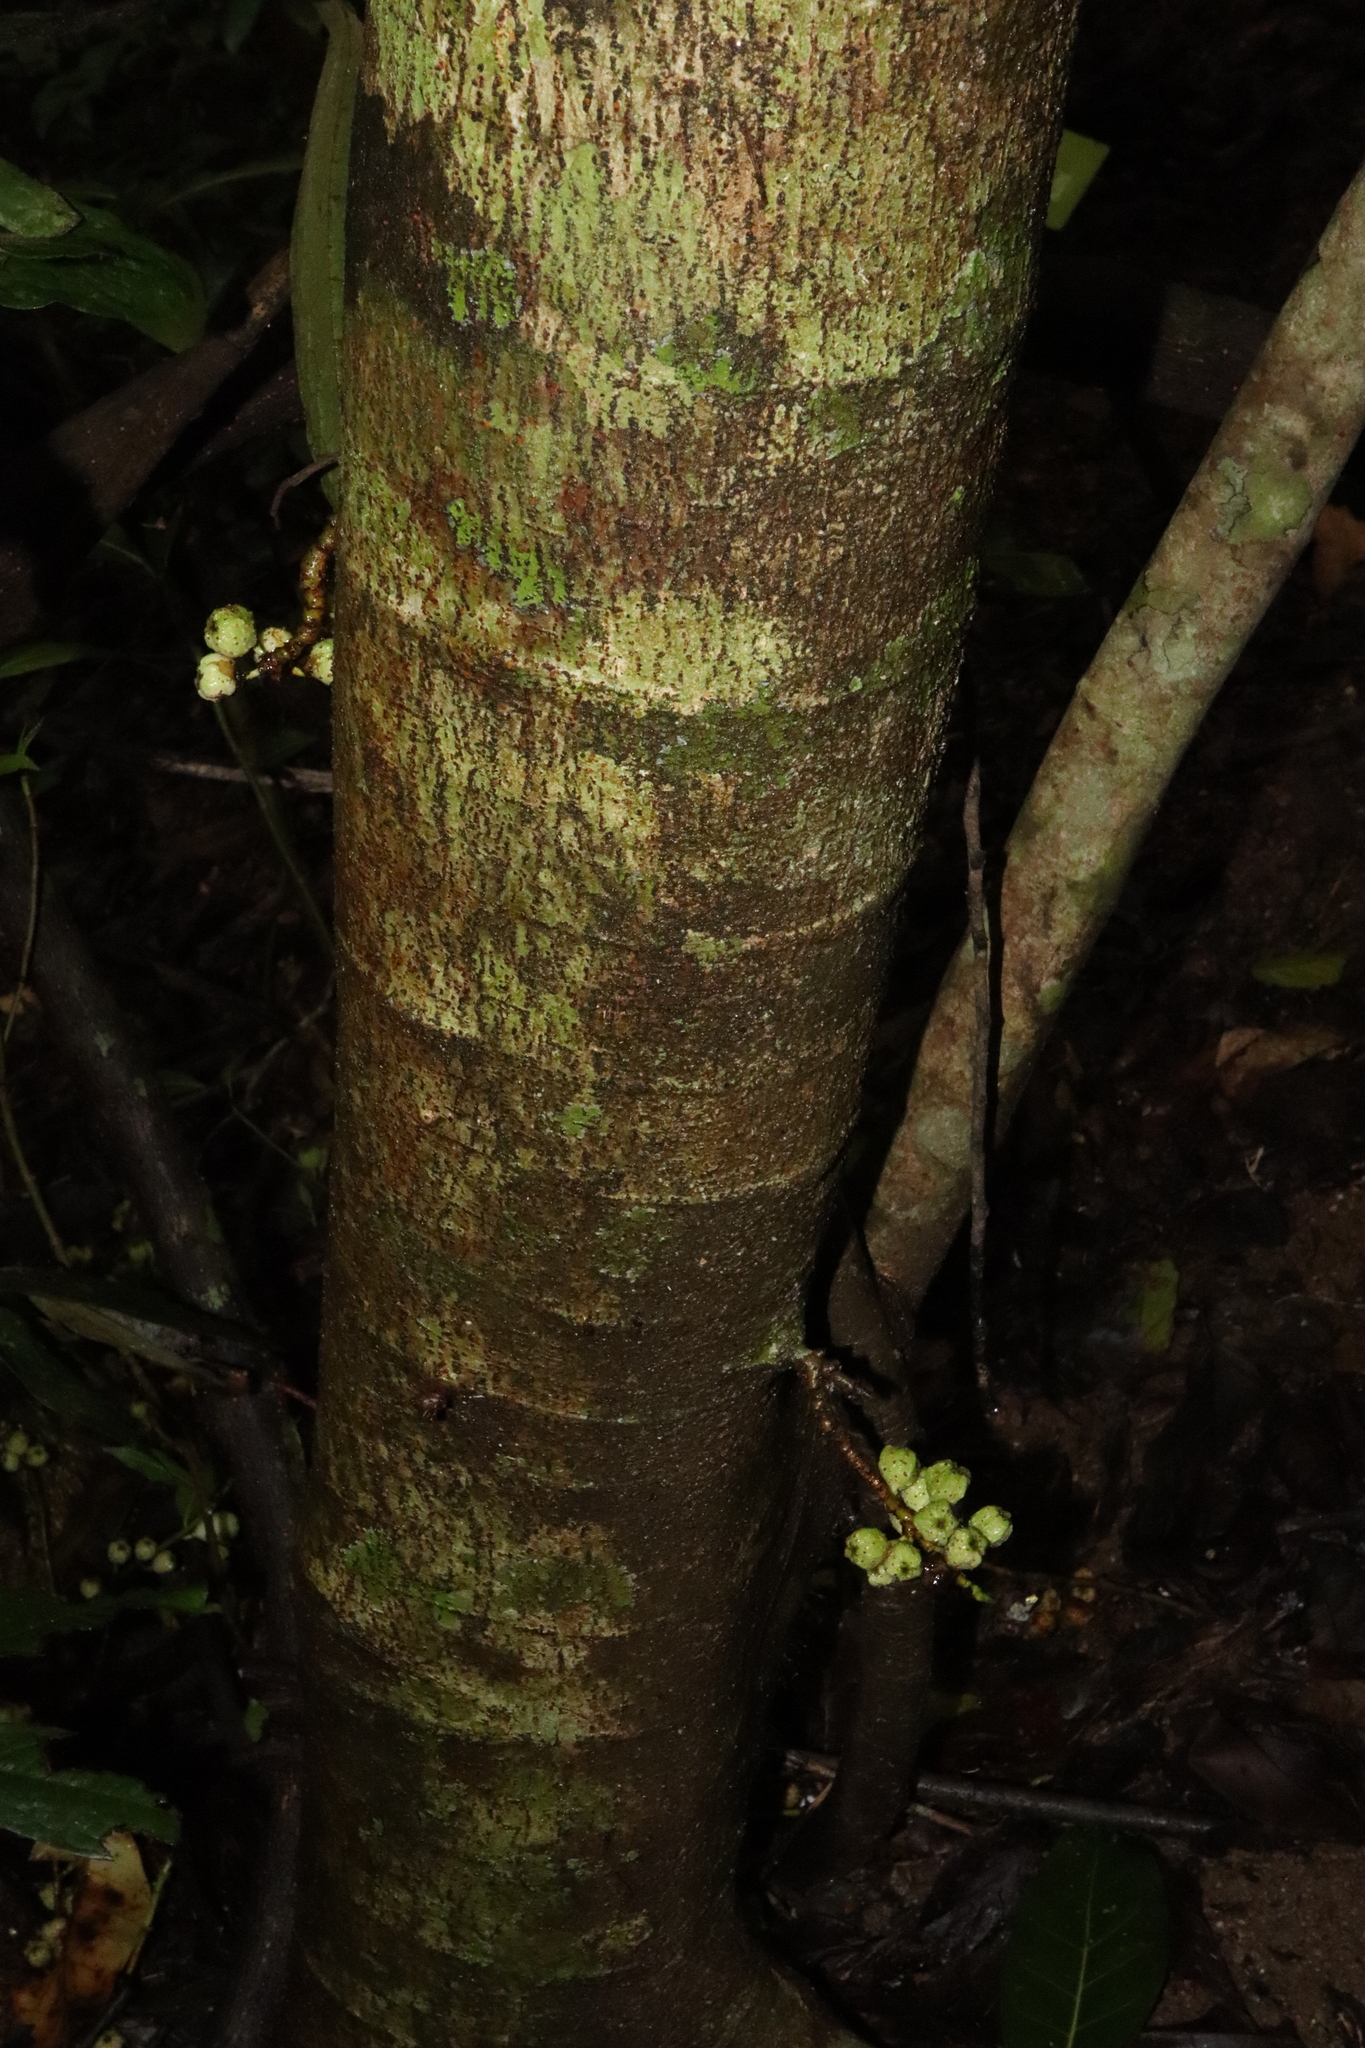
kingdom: Plantae
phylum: Tracheophyta
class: Magnoliopsida
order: Rosales
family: Moraceae
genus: Ficus
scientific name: Ficus septica
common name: Septic fig
